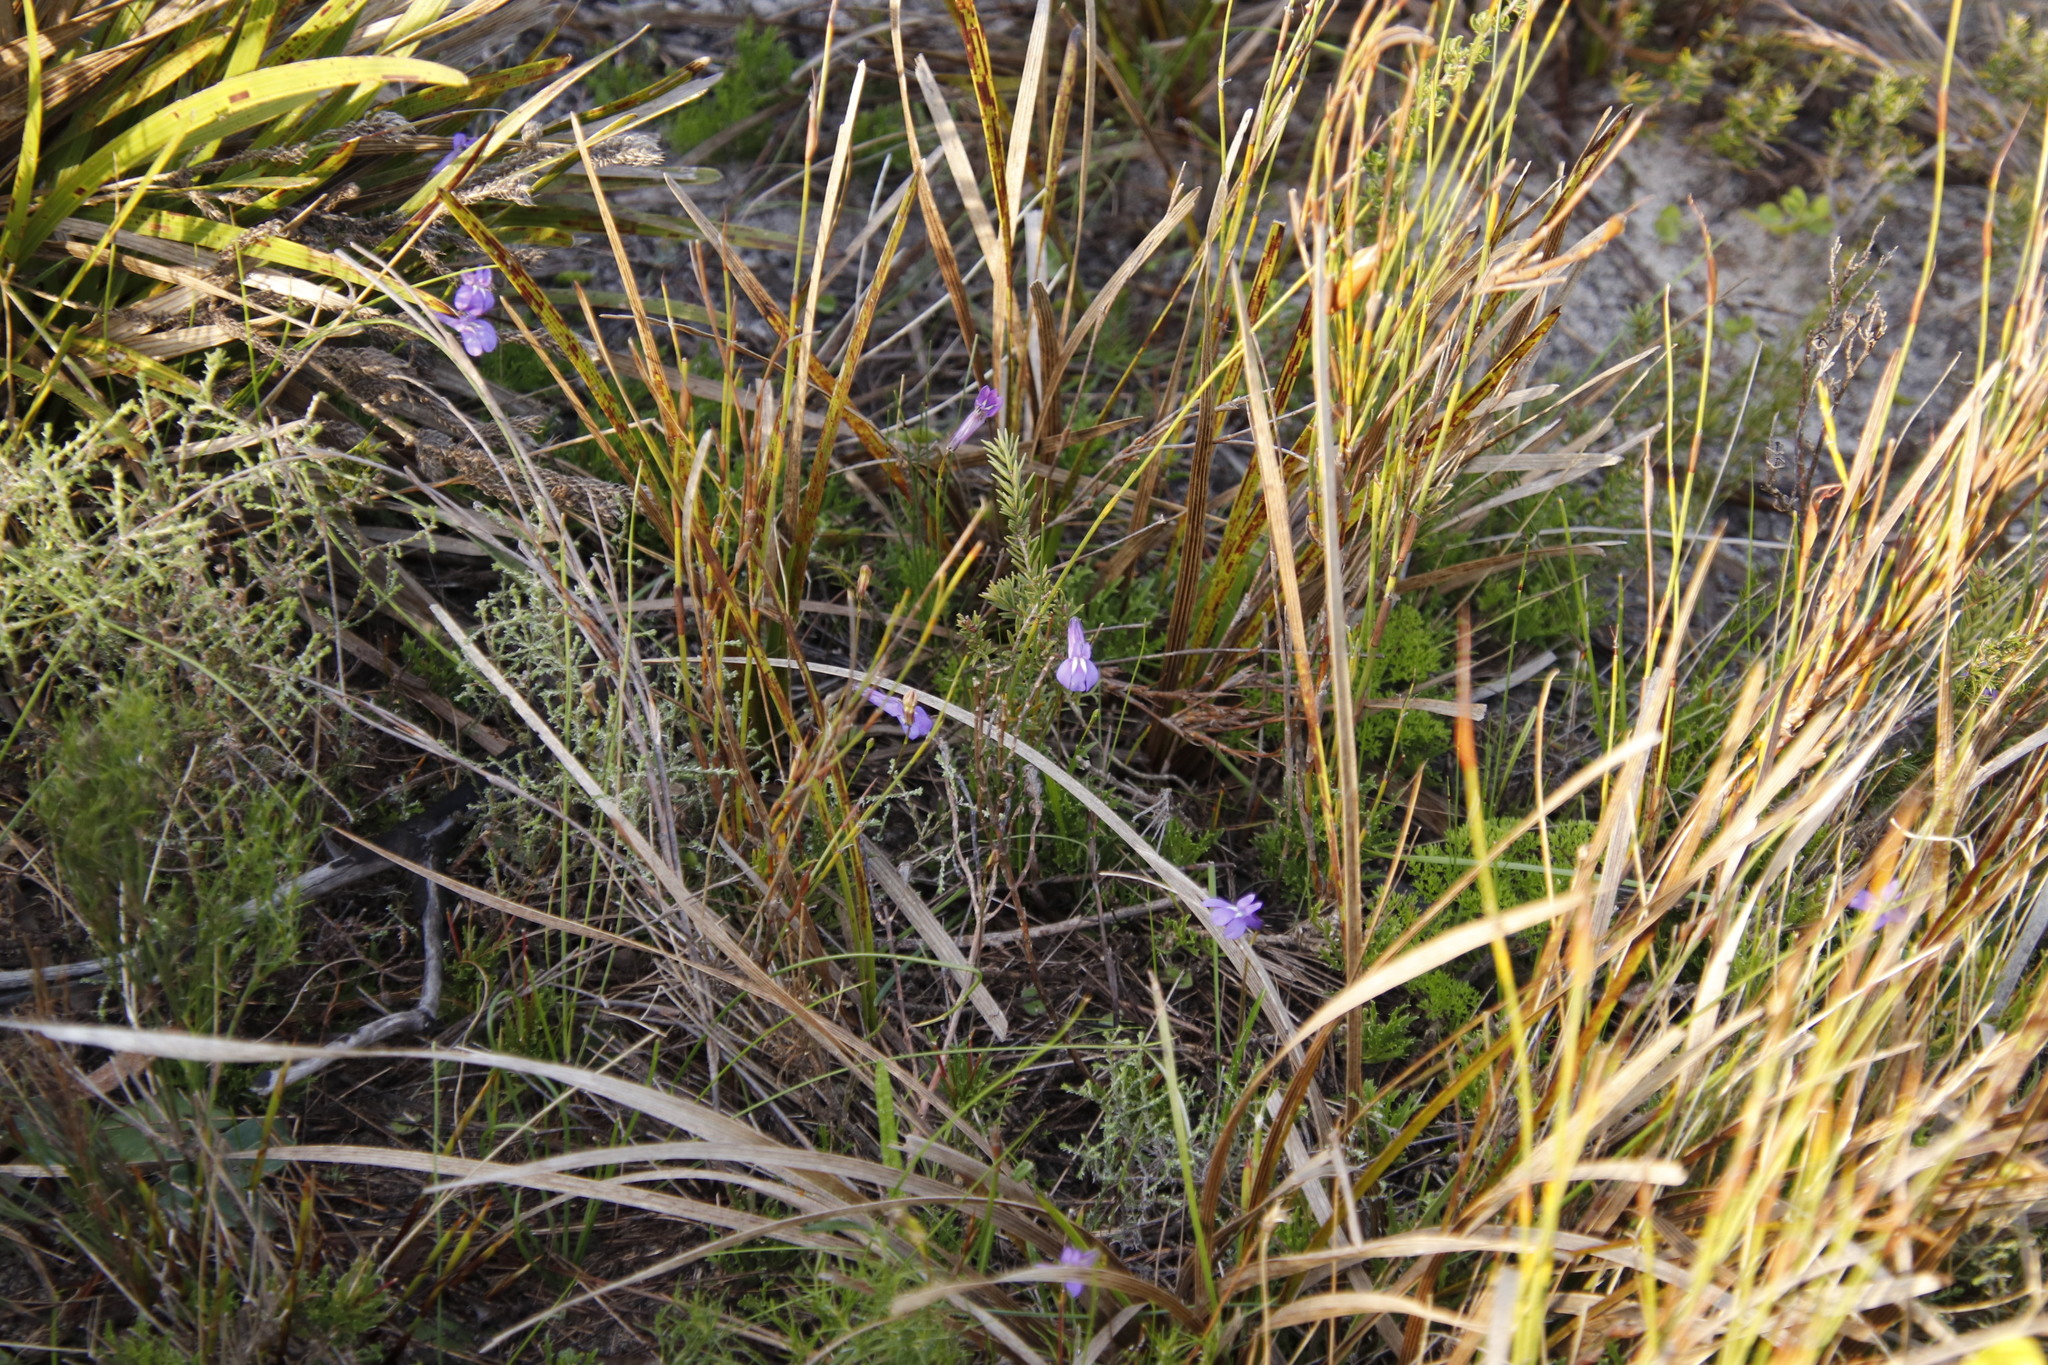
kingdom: Plantae
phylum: Tracheophyta
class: Magnoliopsida
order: Asterales
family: Campanulaceae
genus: Lobelia
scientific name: Lobelia coronopifolia
